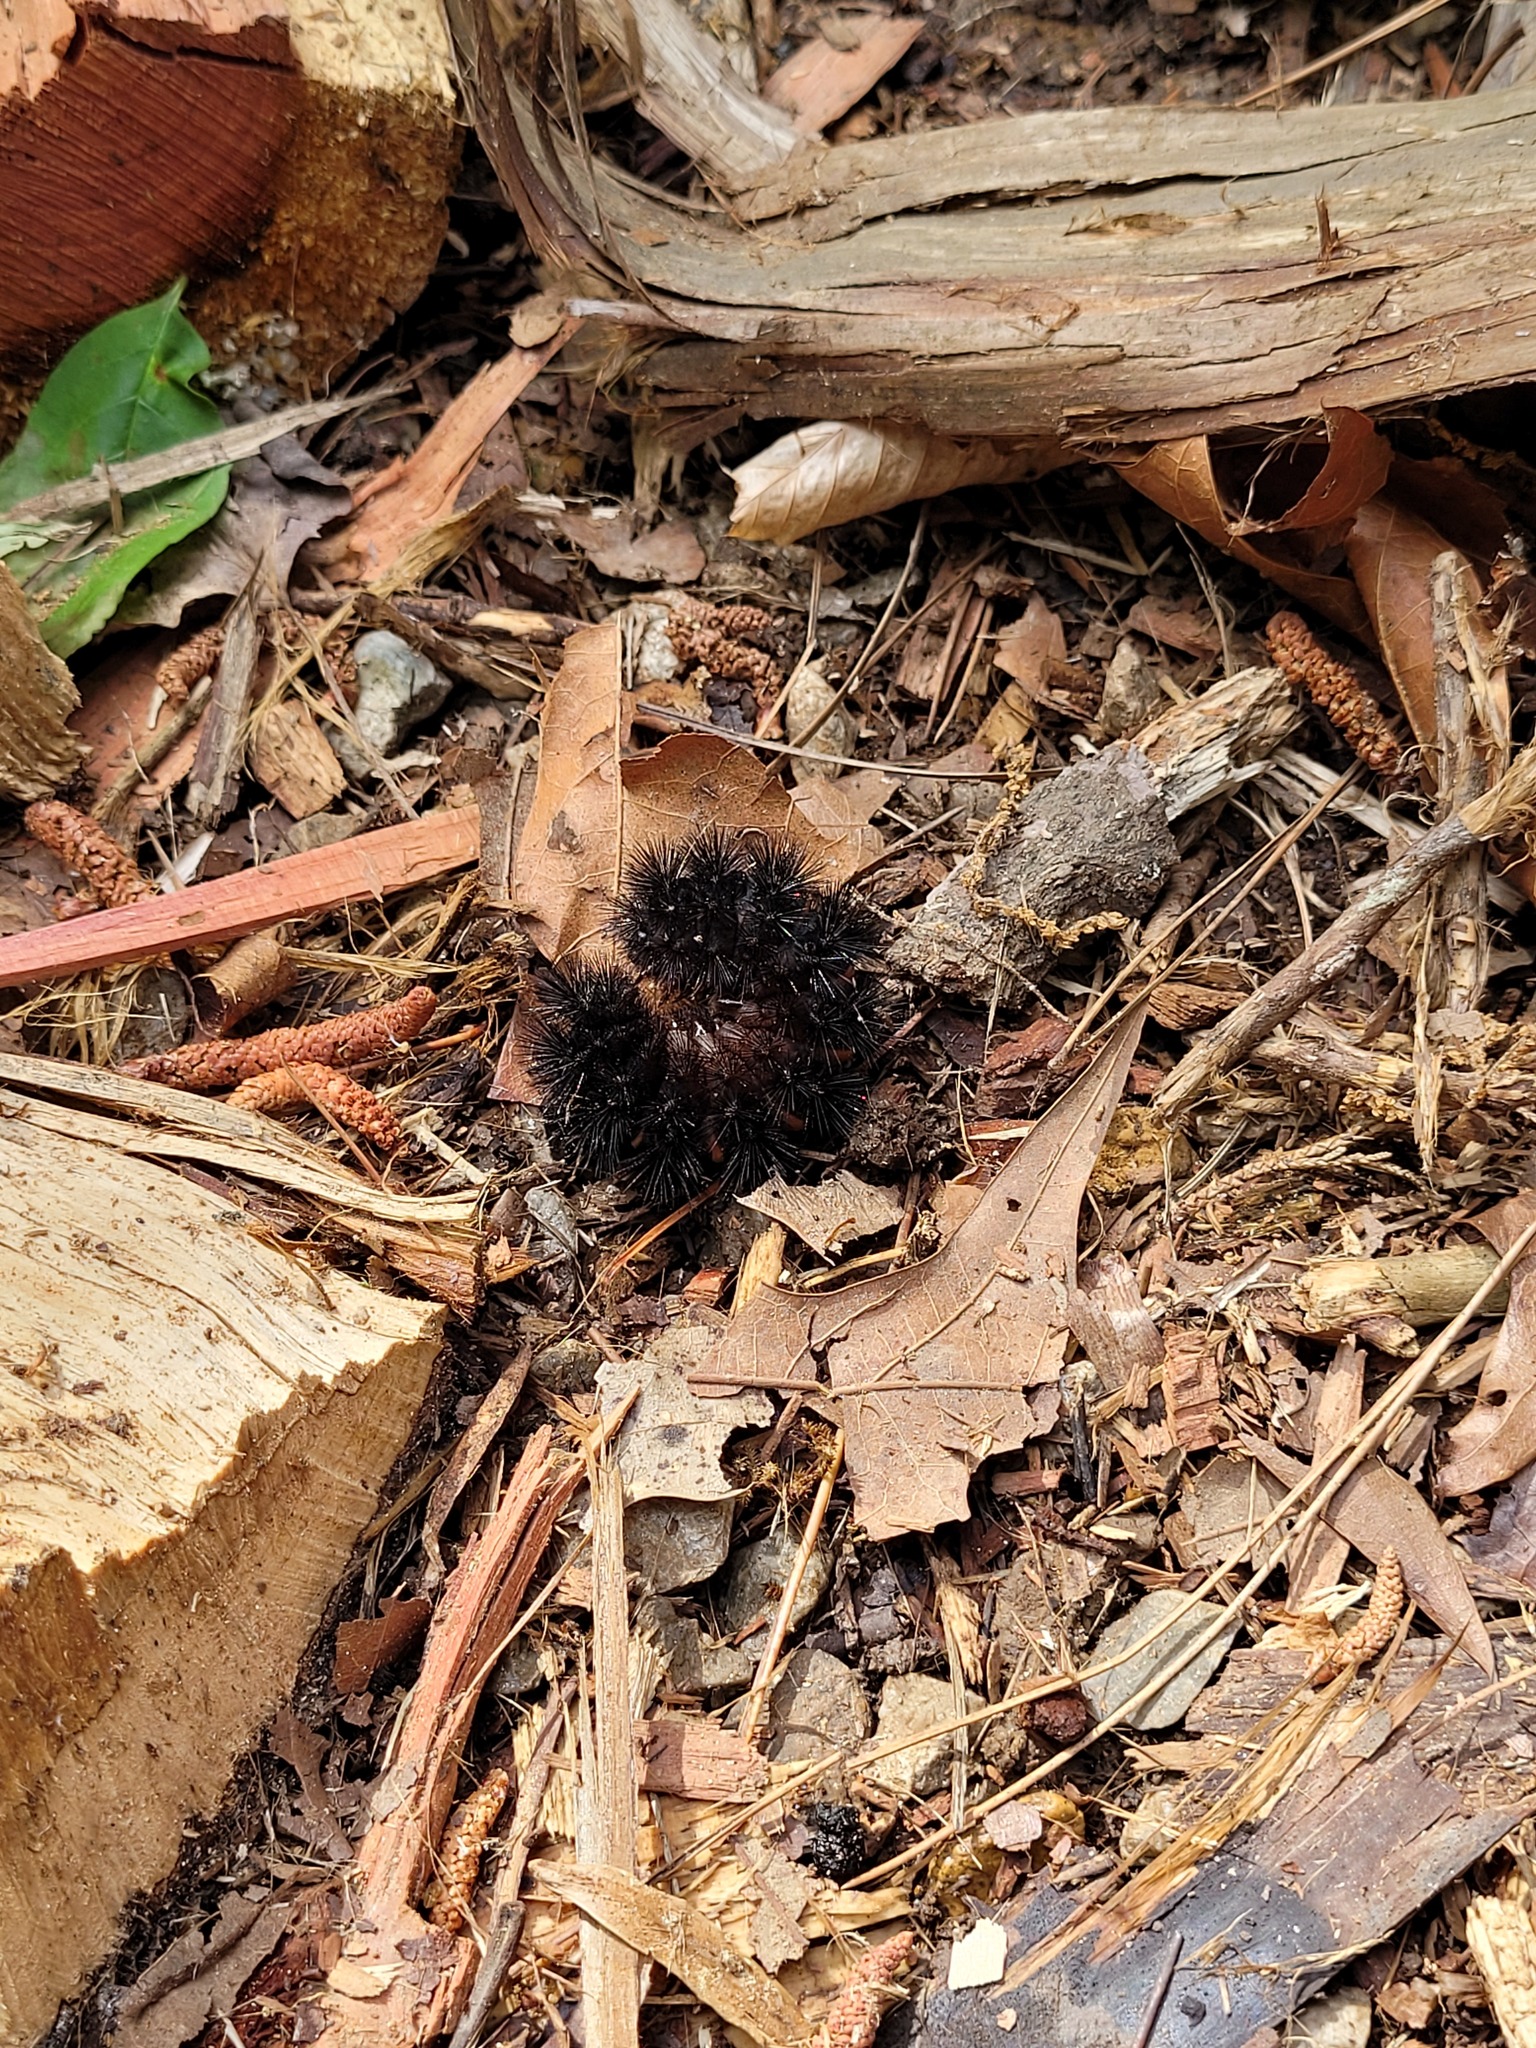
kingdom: Animalia
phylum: Arthropoda
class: Insecta
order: Lepidoptera
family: Erebidae
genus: Hypercompe
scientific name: Hypercompe scribonia
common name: Giant leopard moth
